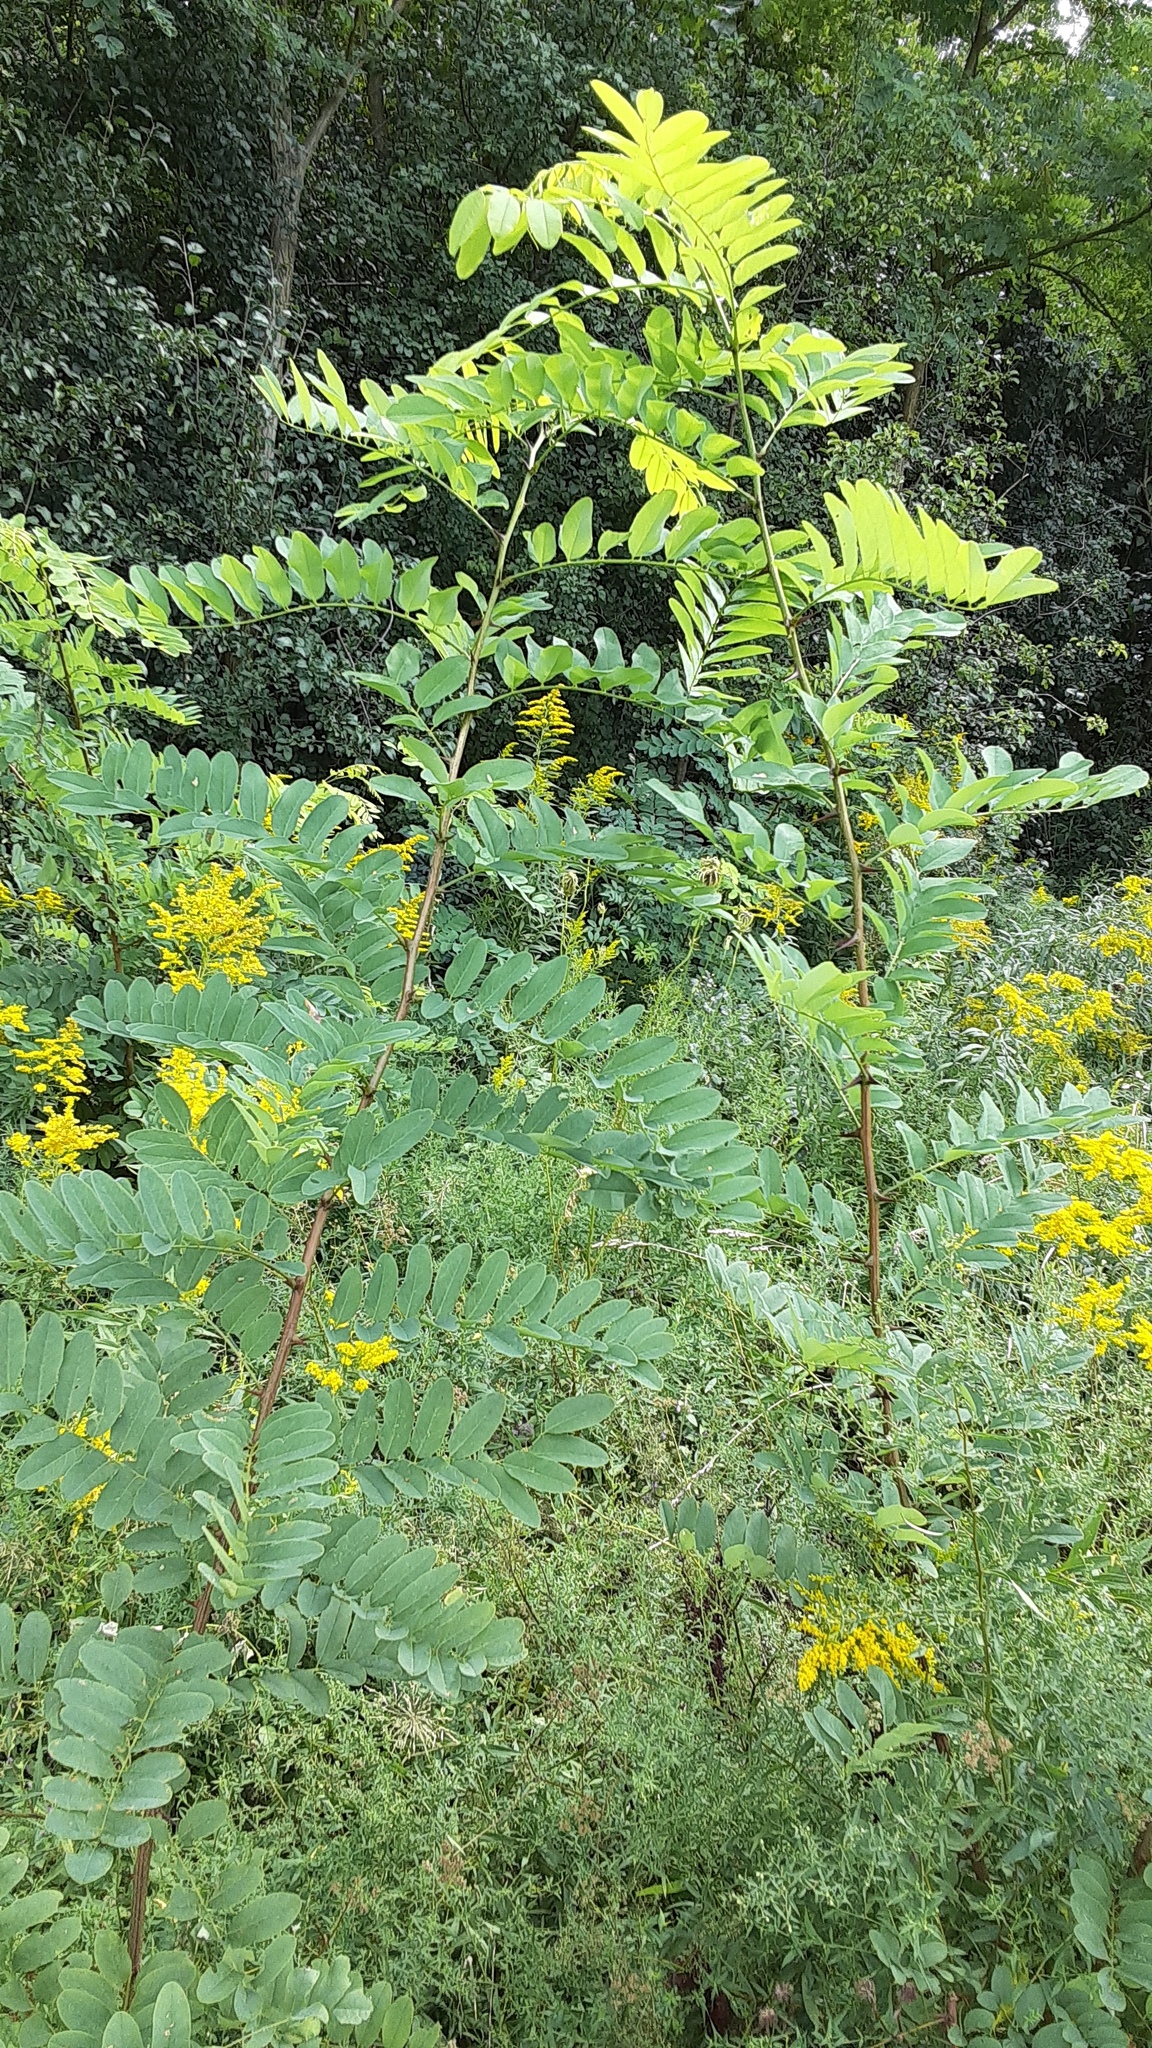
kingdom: Plantae
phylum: Tracheophyta
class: Magnoliopsida
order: Fabales
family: Fabaceae
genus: Robinia
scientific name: Robinia pseudoacacia
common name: Black locust
